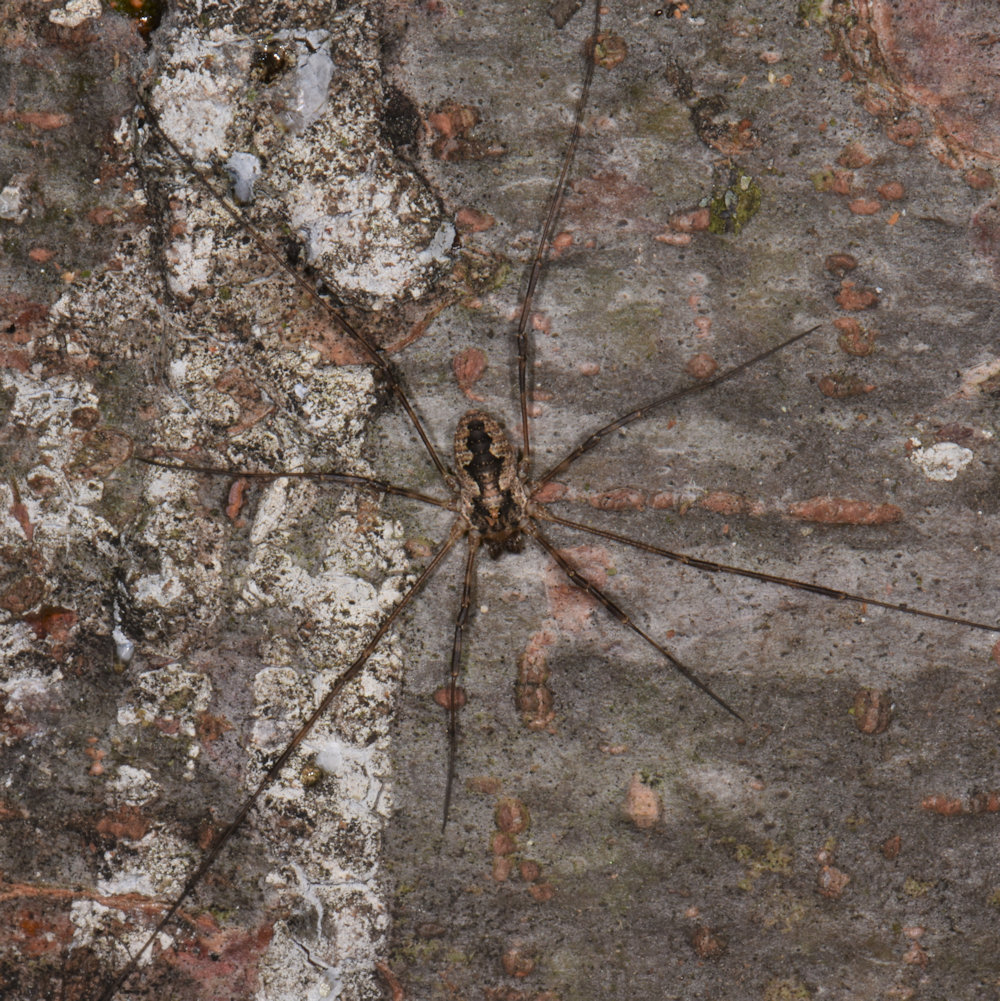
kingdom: Animalia
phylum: Arthropoda
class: Arachnida
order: Opiliones
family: Phalangiidae
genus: Odiellus
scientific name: Odiellus pictus
